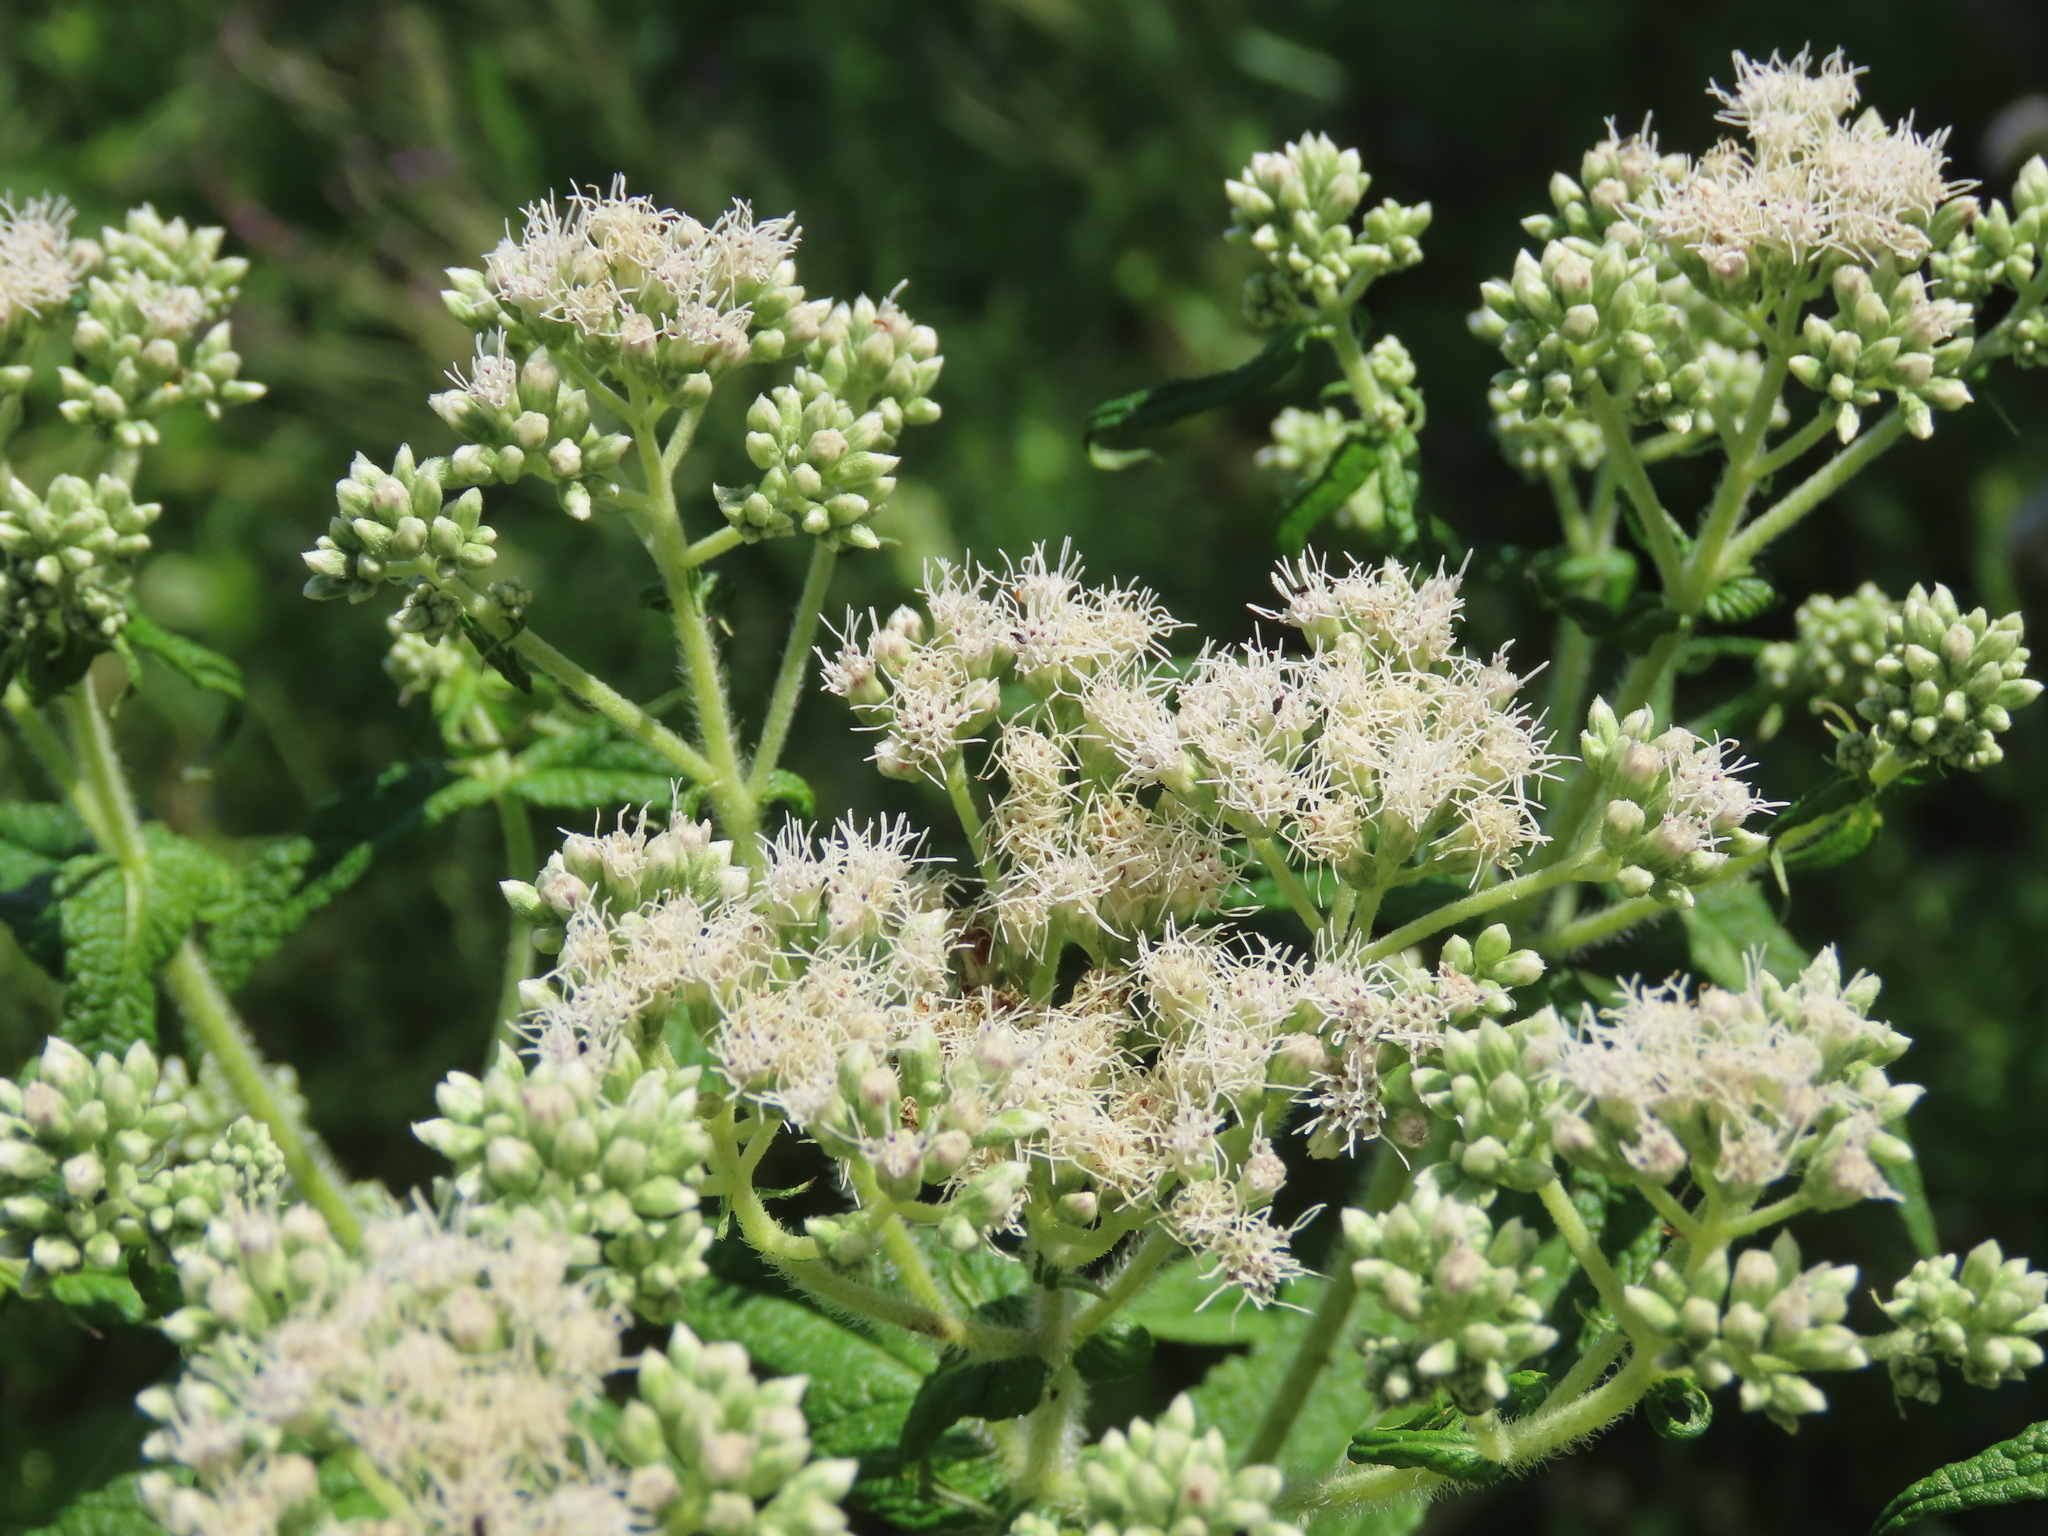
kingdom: Plantae
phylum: Tracheophyta
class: Magnoliopsida
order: Asterales
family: Asteraceae
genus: Eupatorium
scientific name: Eupatorium perfoliatum
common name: Boneset
